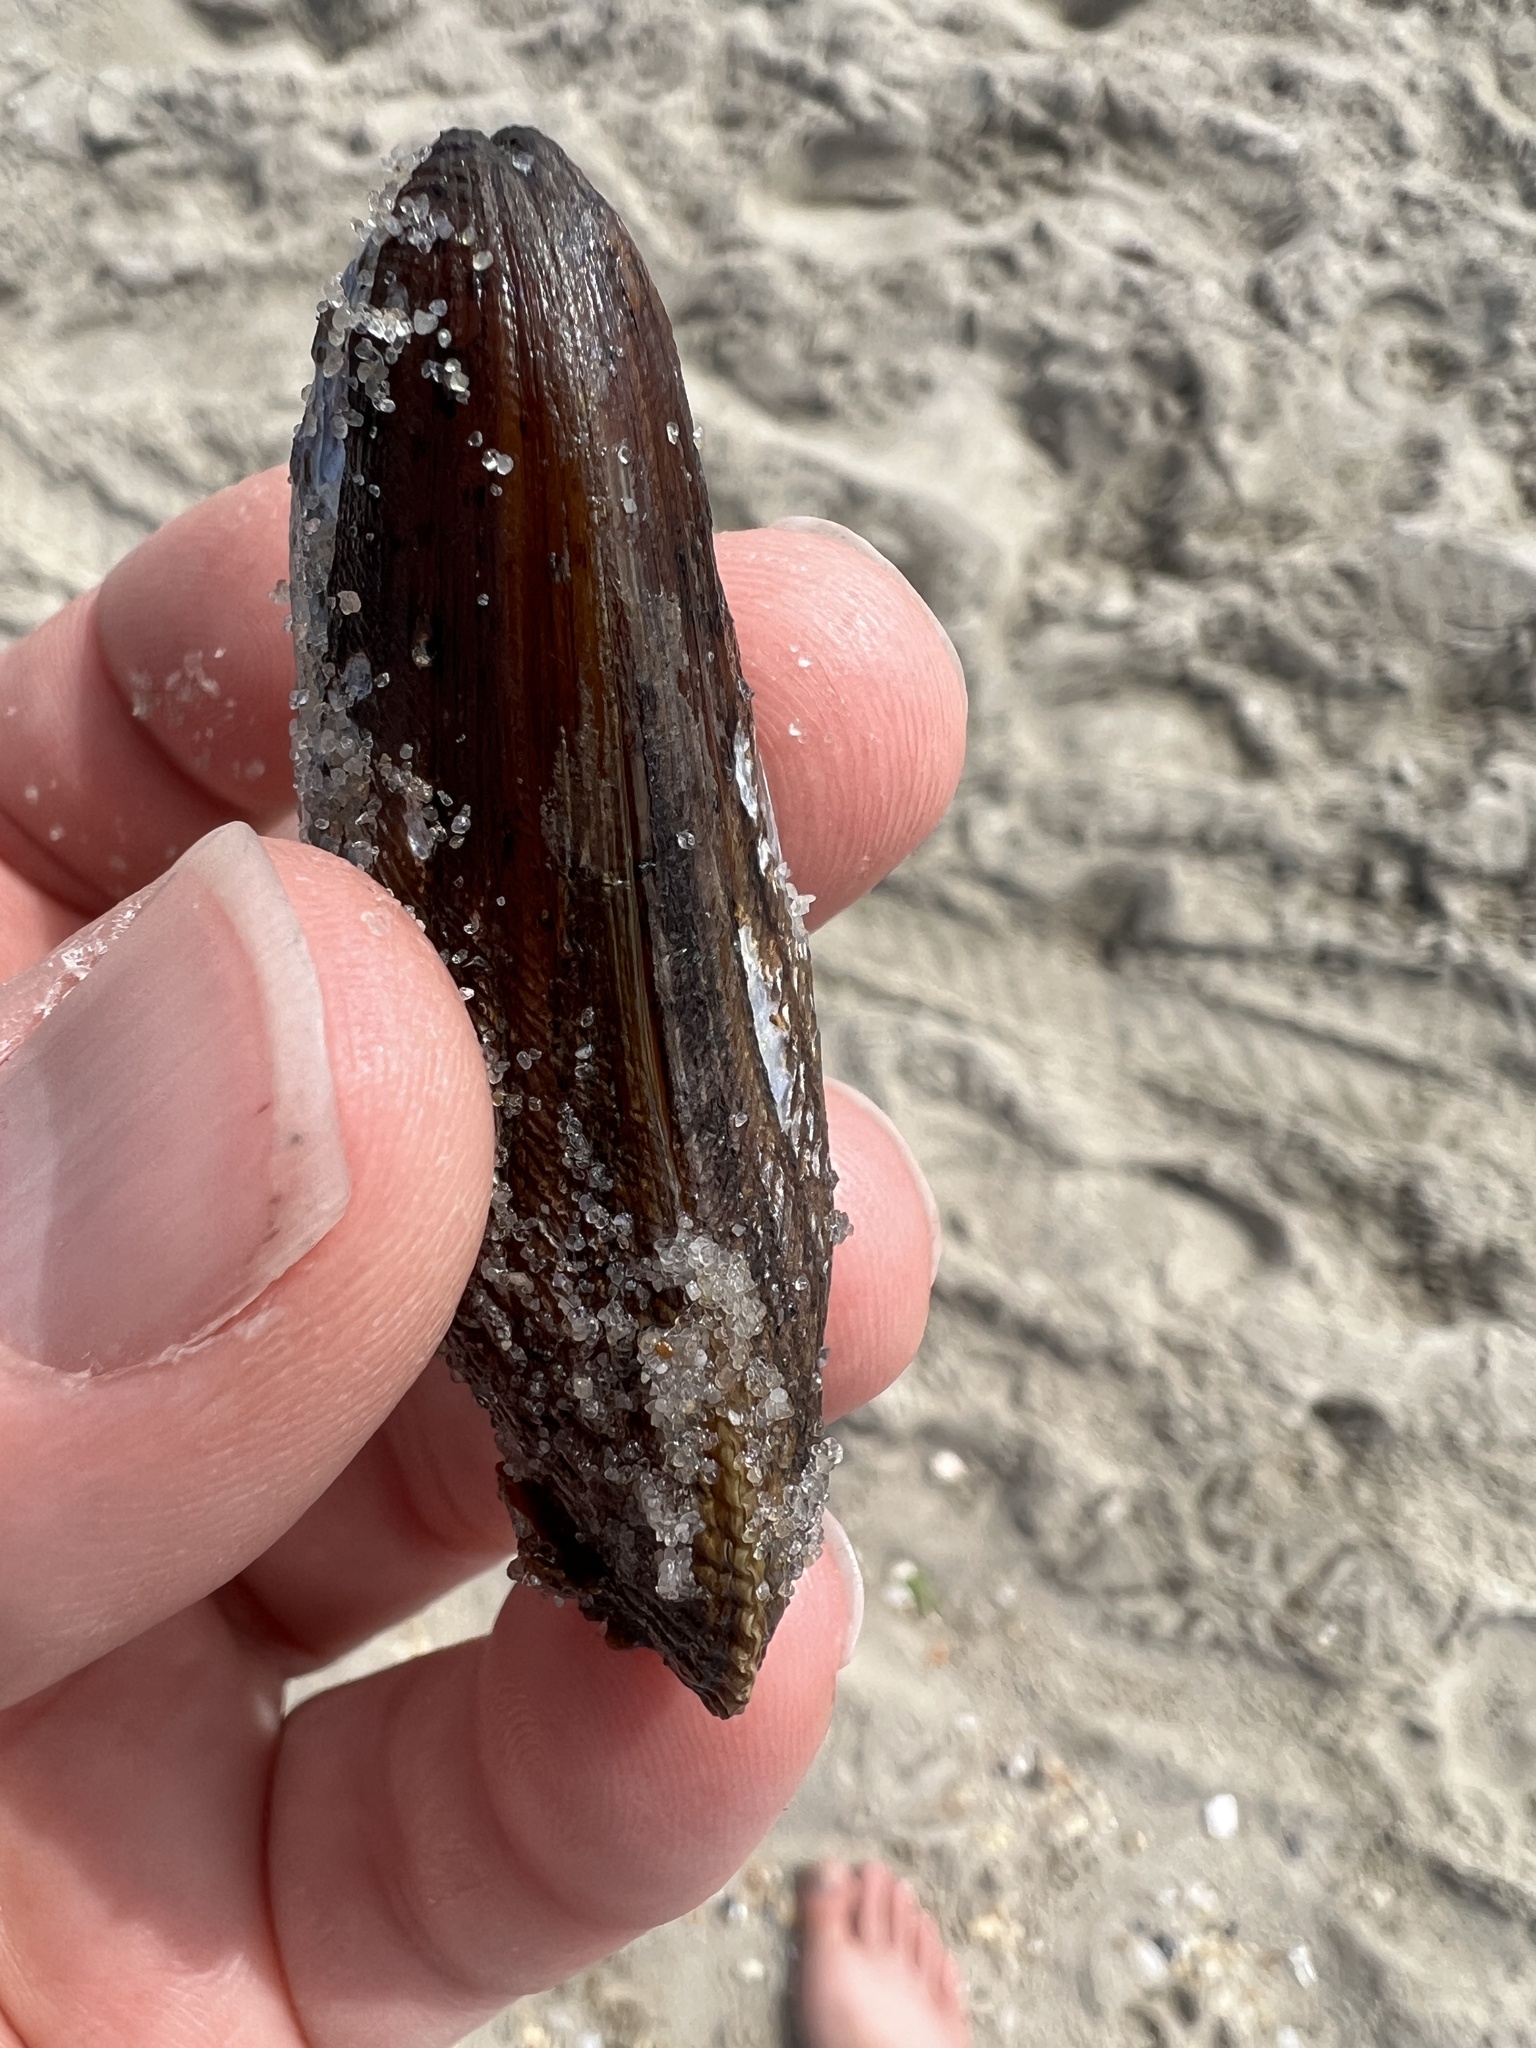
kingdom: Animalia
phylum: Mollusca
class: Bivalvia
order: Mytilida
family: Mytilidae
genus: Geukensia
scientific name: Geukensia demissa
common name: Ribbed mussel
